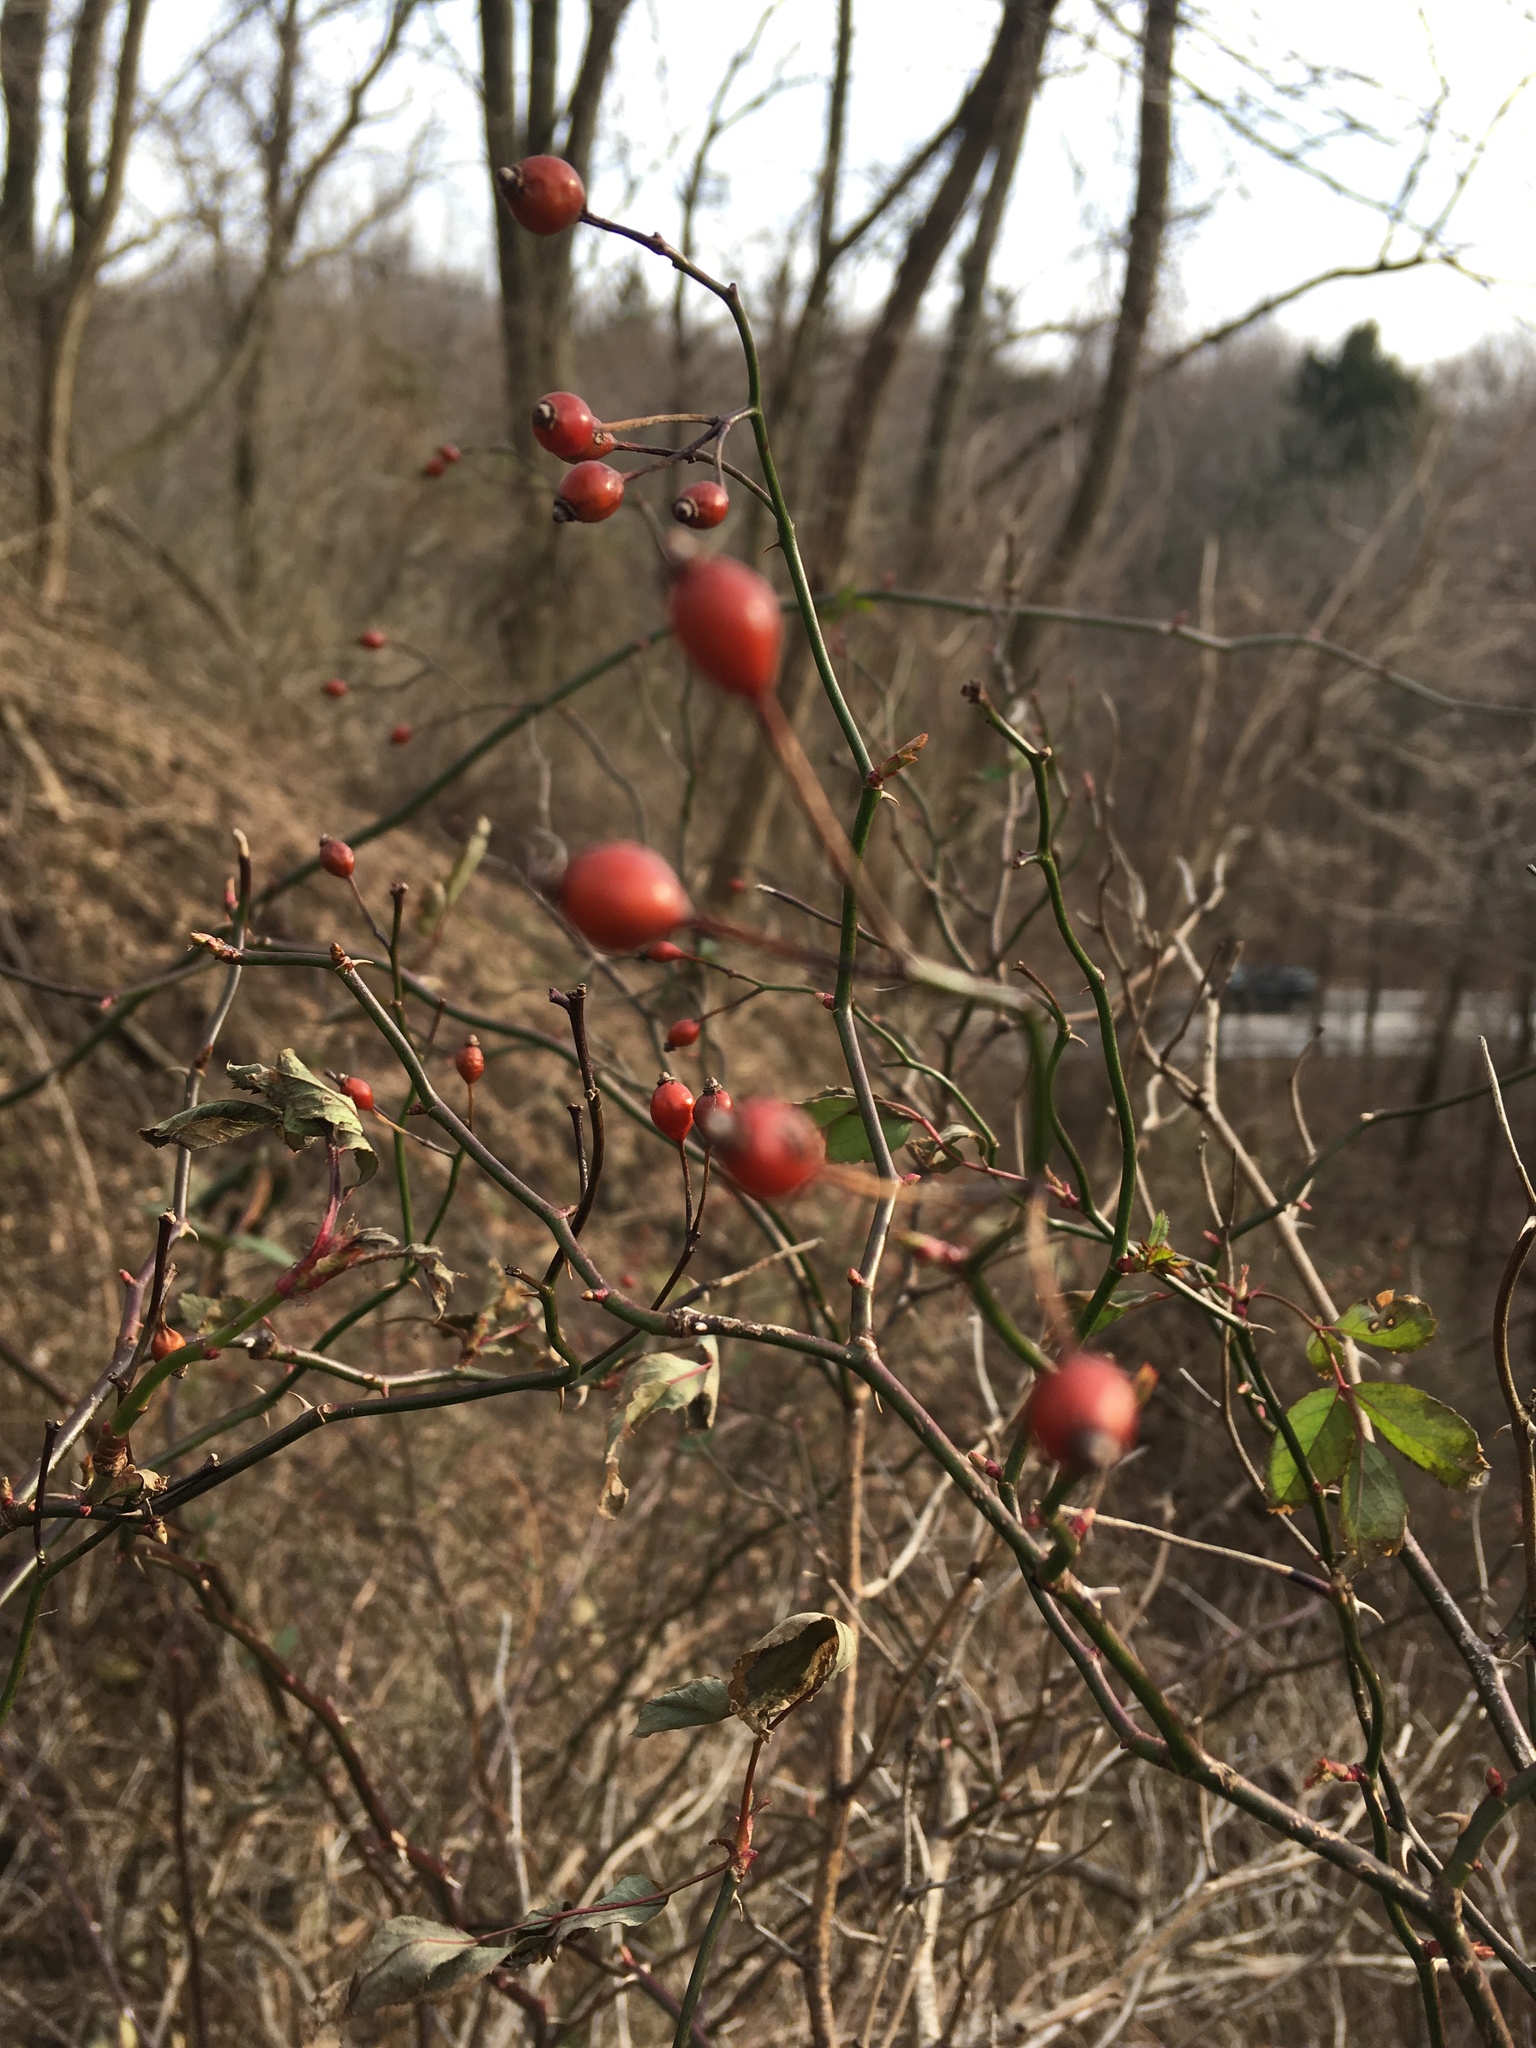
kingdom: Plantae
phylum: Tracheophyta
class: Magnoliopsida
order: Rosales
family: Rosaceae
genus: Rosa
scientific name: Rosa multiflora
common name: Multiflora rose
